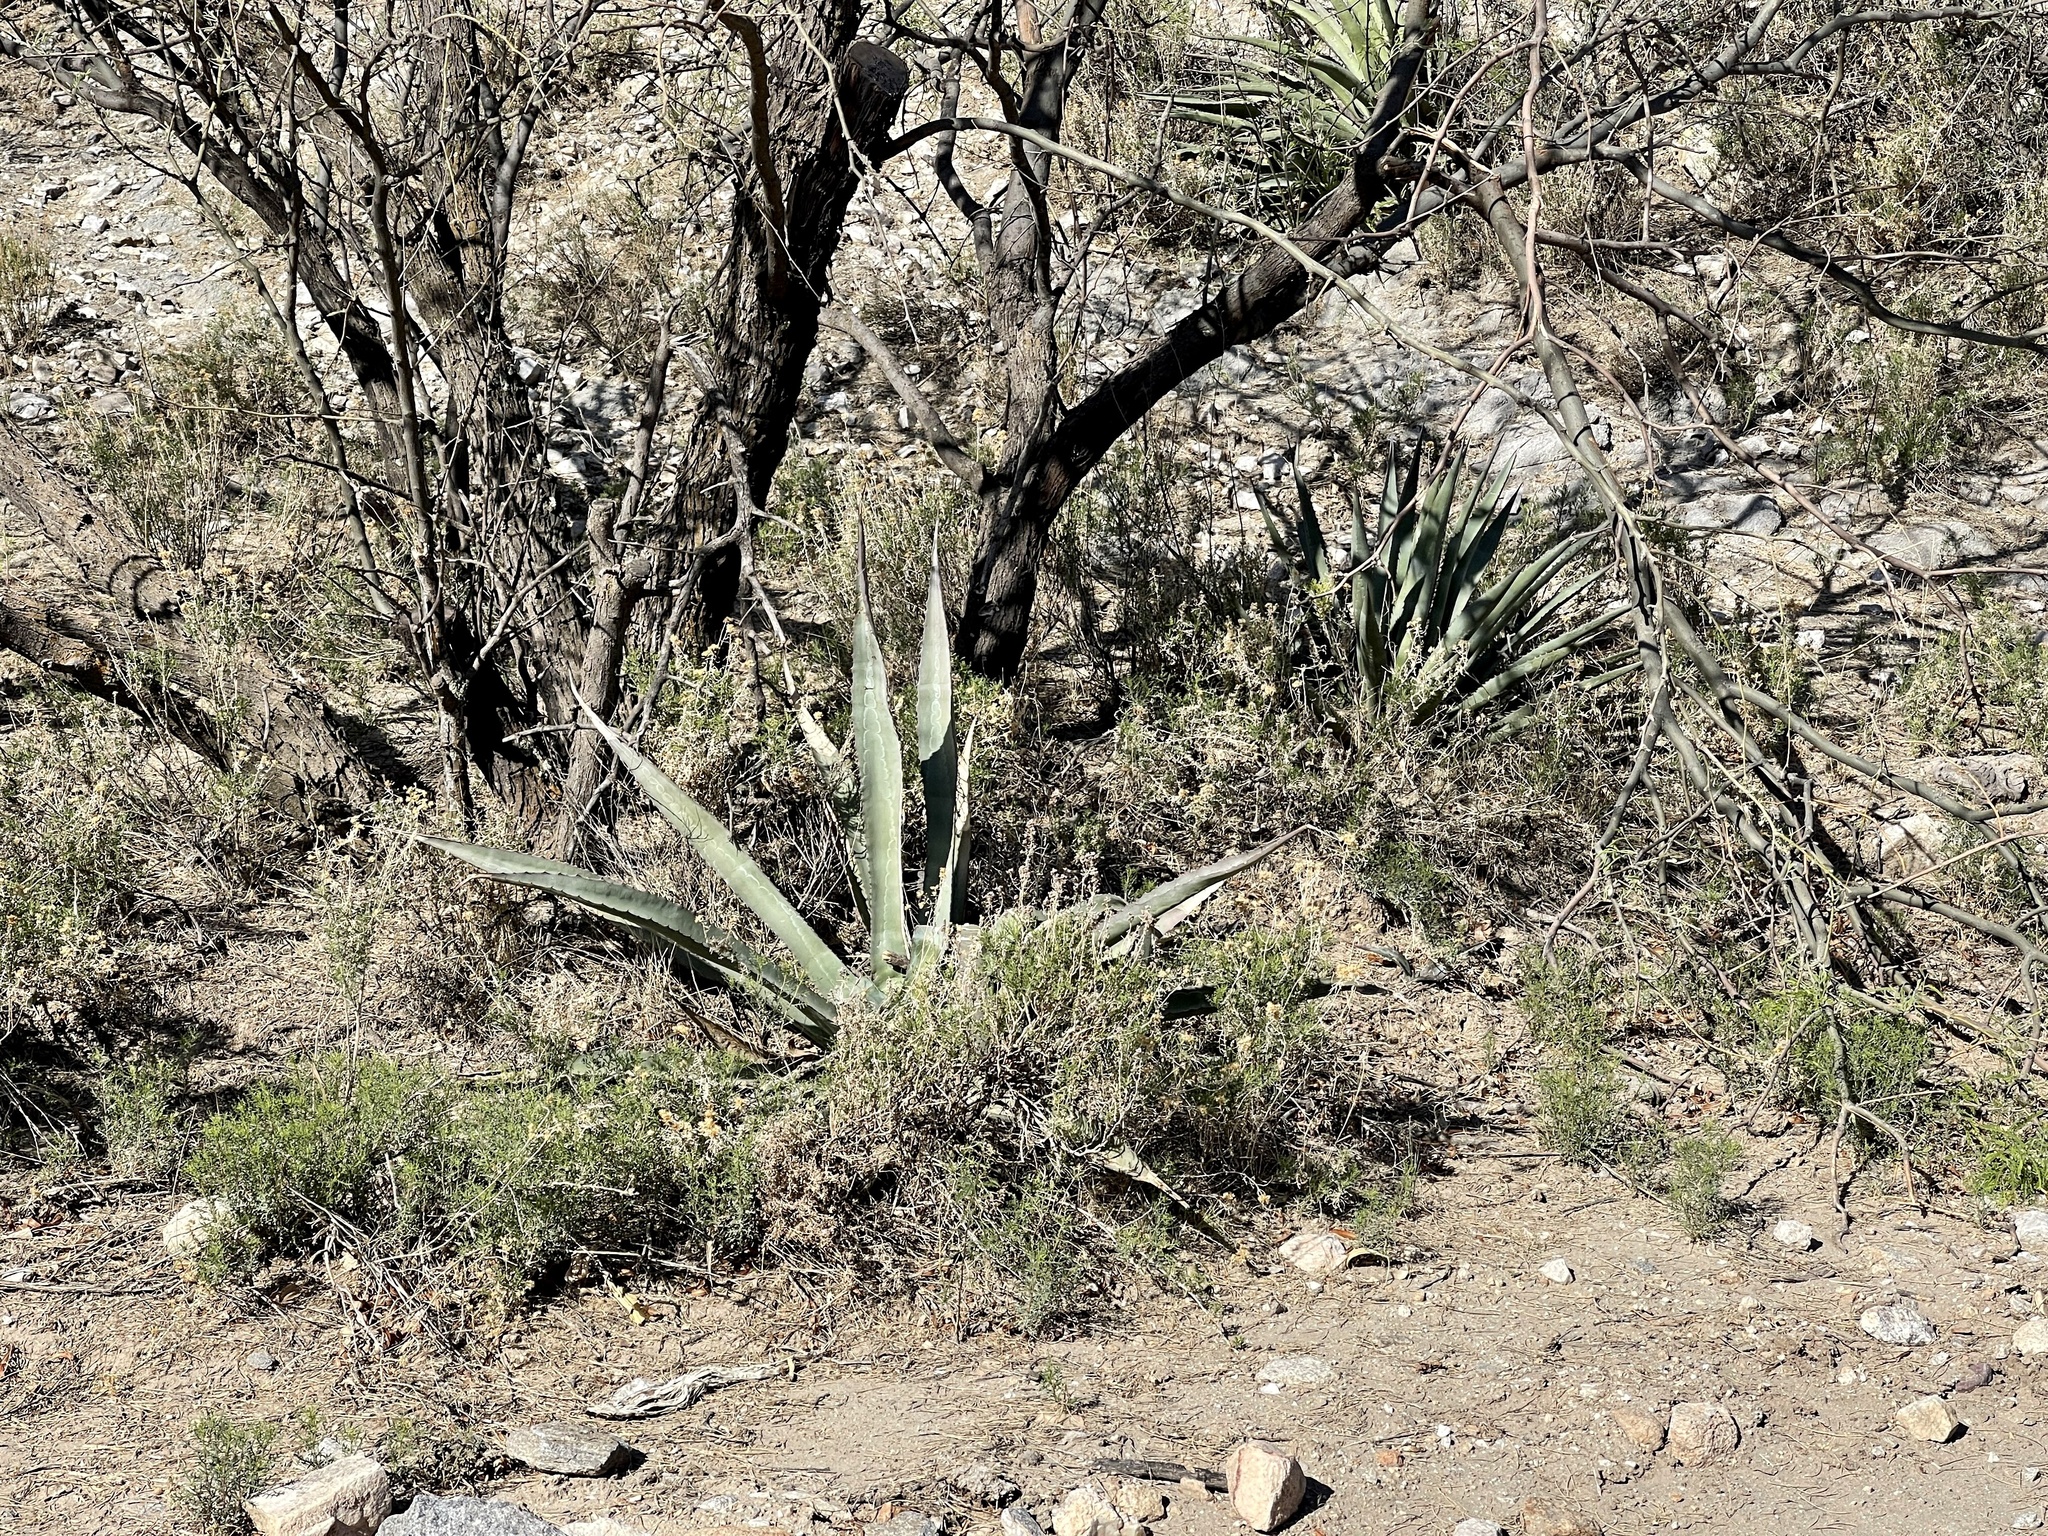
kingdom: Plantae
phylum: Tracheophyta
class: Liliopsida
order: Asparagales
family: Asparagaceae
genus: Agave
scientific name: Agave palmeri
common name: Palmer agave
